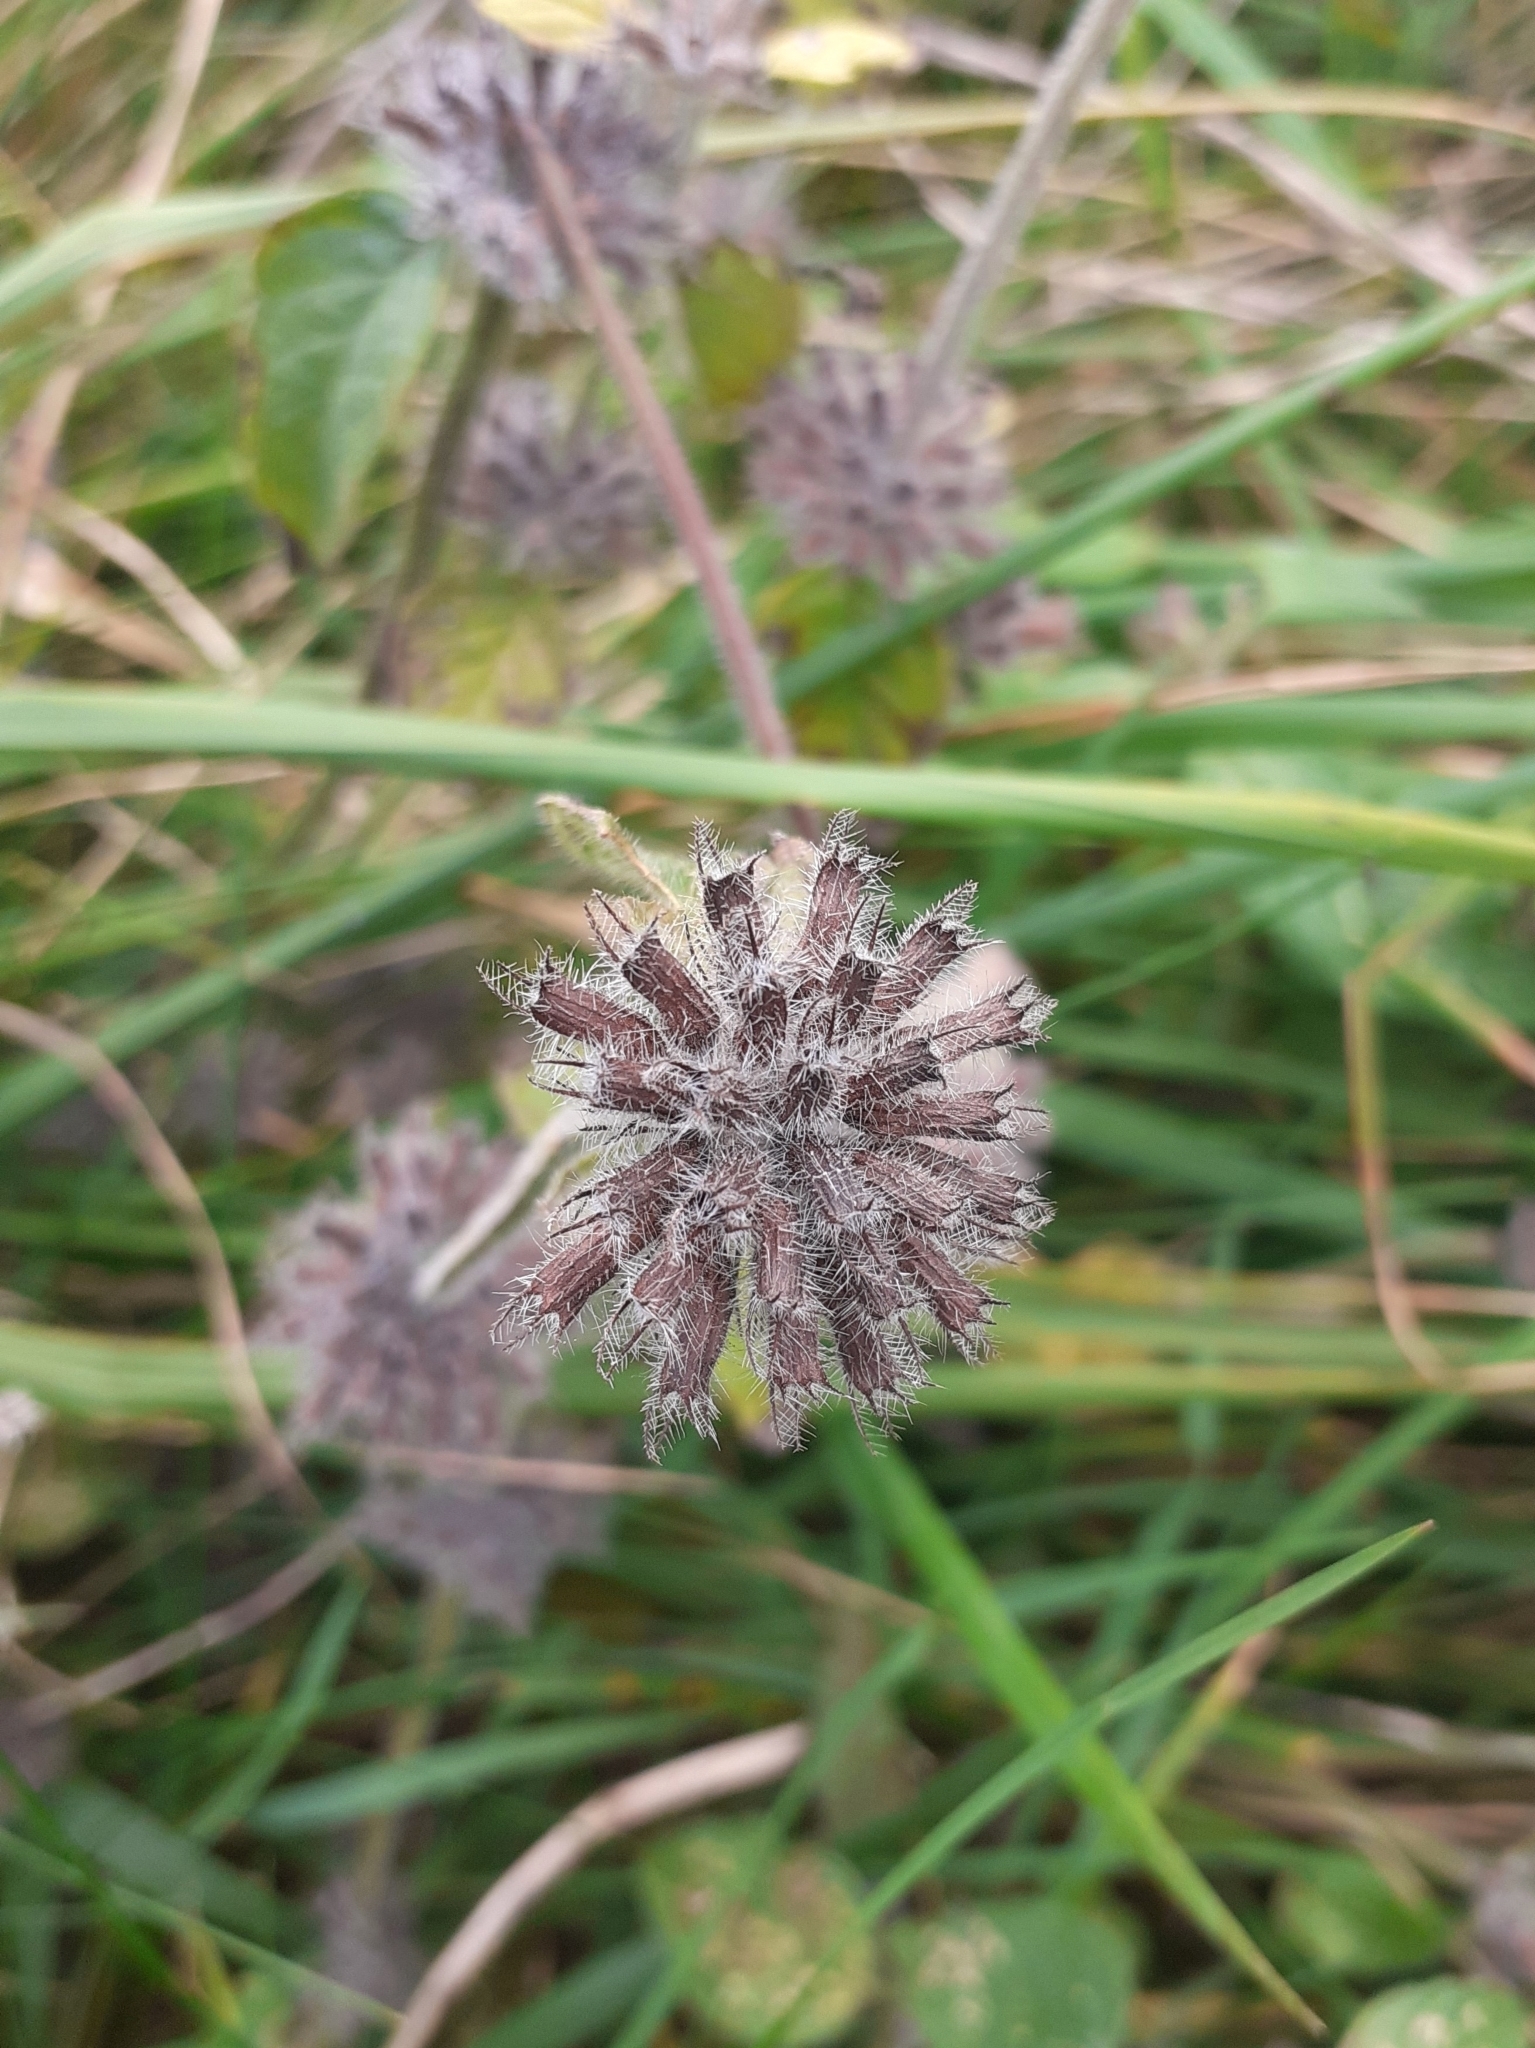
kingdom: Plantae
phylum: Tracheophyta
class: Magnoliopsida
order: Lamiales
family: Lamiaceae
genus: Clinopodium
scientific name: Clinopodium vulgare
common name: Wild basil
